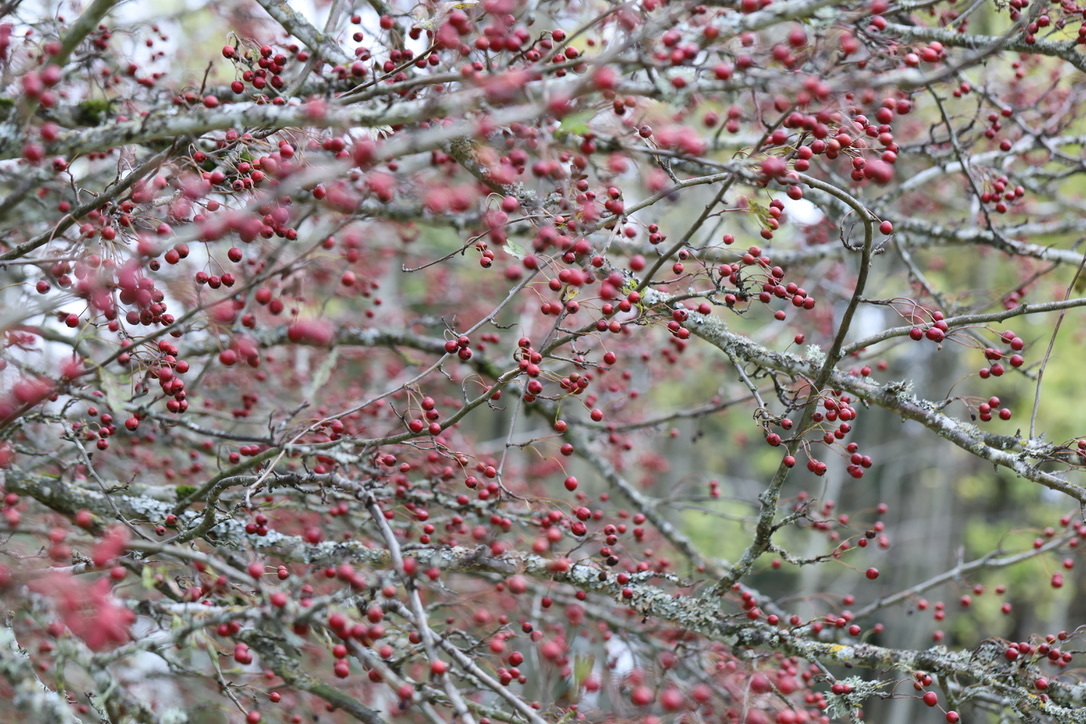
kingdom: Plantae
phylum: Tracheophyta
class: Magnoliopsida
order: Rosales
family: Rosaceae
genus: Crataegus
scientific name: Crataegus monogyna
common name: Hawthorn
